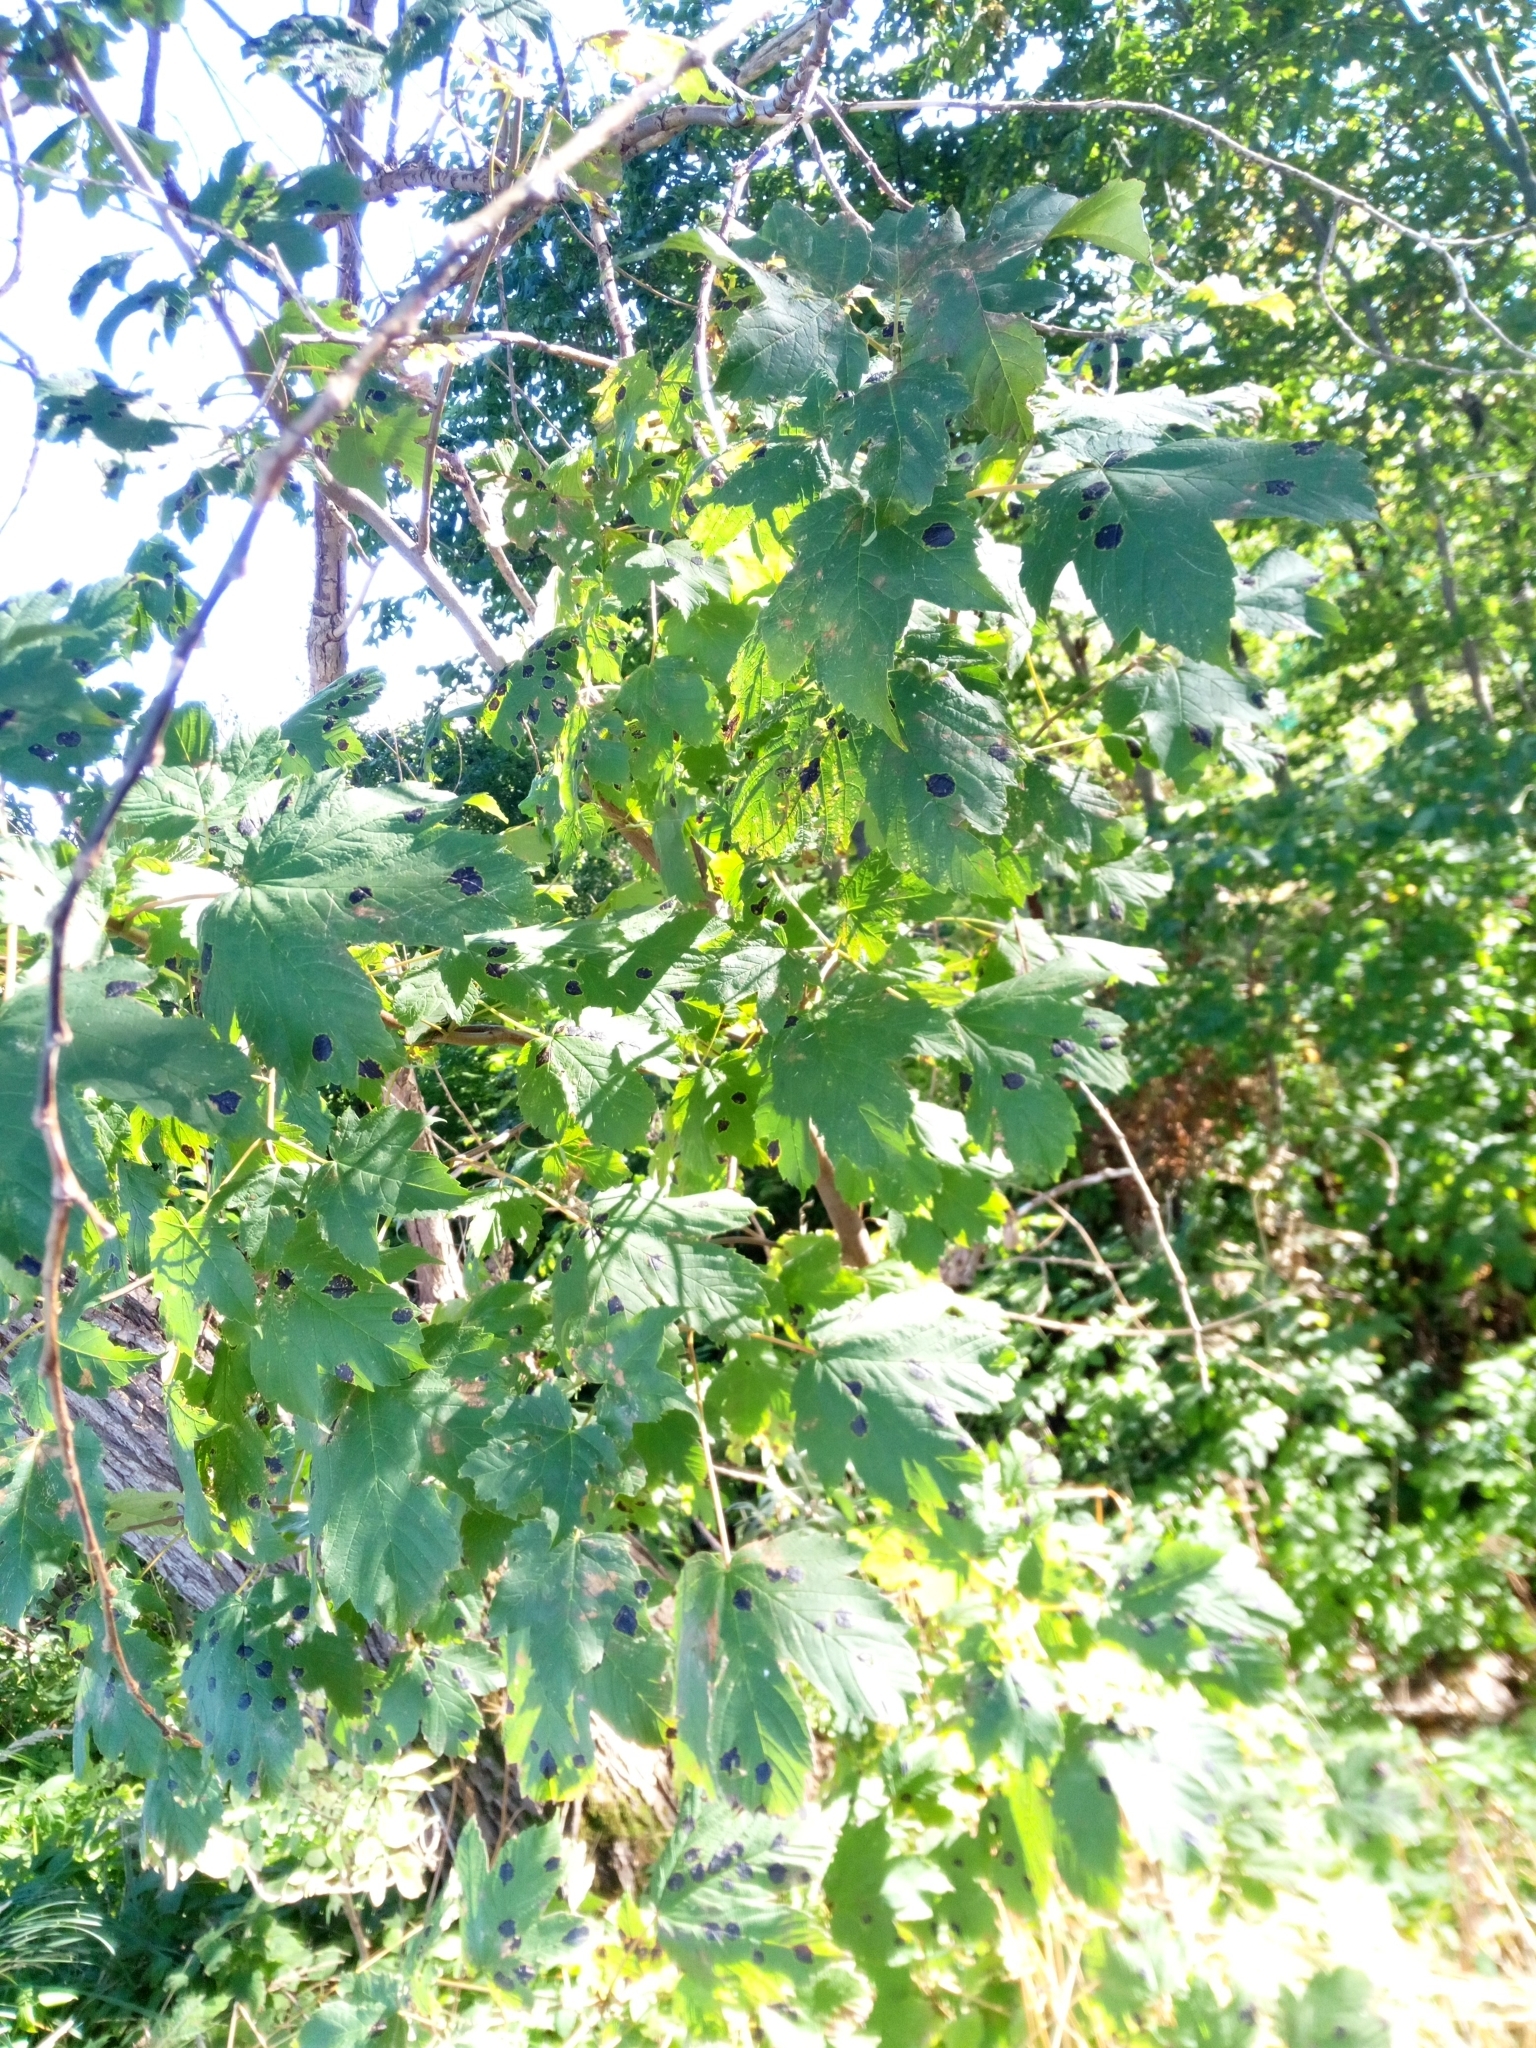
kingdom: Plantae
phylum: Tracheophyta
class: Magnoliopsida
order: Sapindales
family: Sapindaceae
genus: Acer
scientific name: Acer pseudoplatanus
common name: Sycamore
